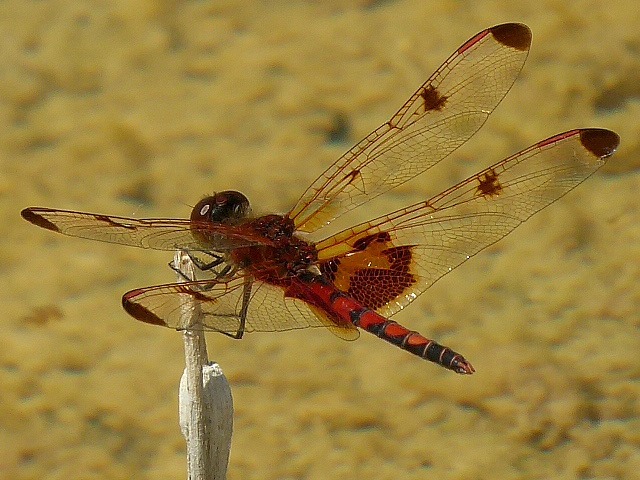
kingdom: Animalia
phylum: Arthropoda
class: Insecta
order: Odonata
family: Libellulidae
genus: Celithemis
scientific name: Celithemis elisa
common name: Calico pennant
